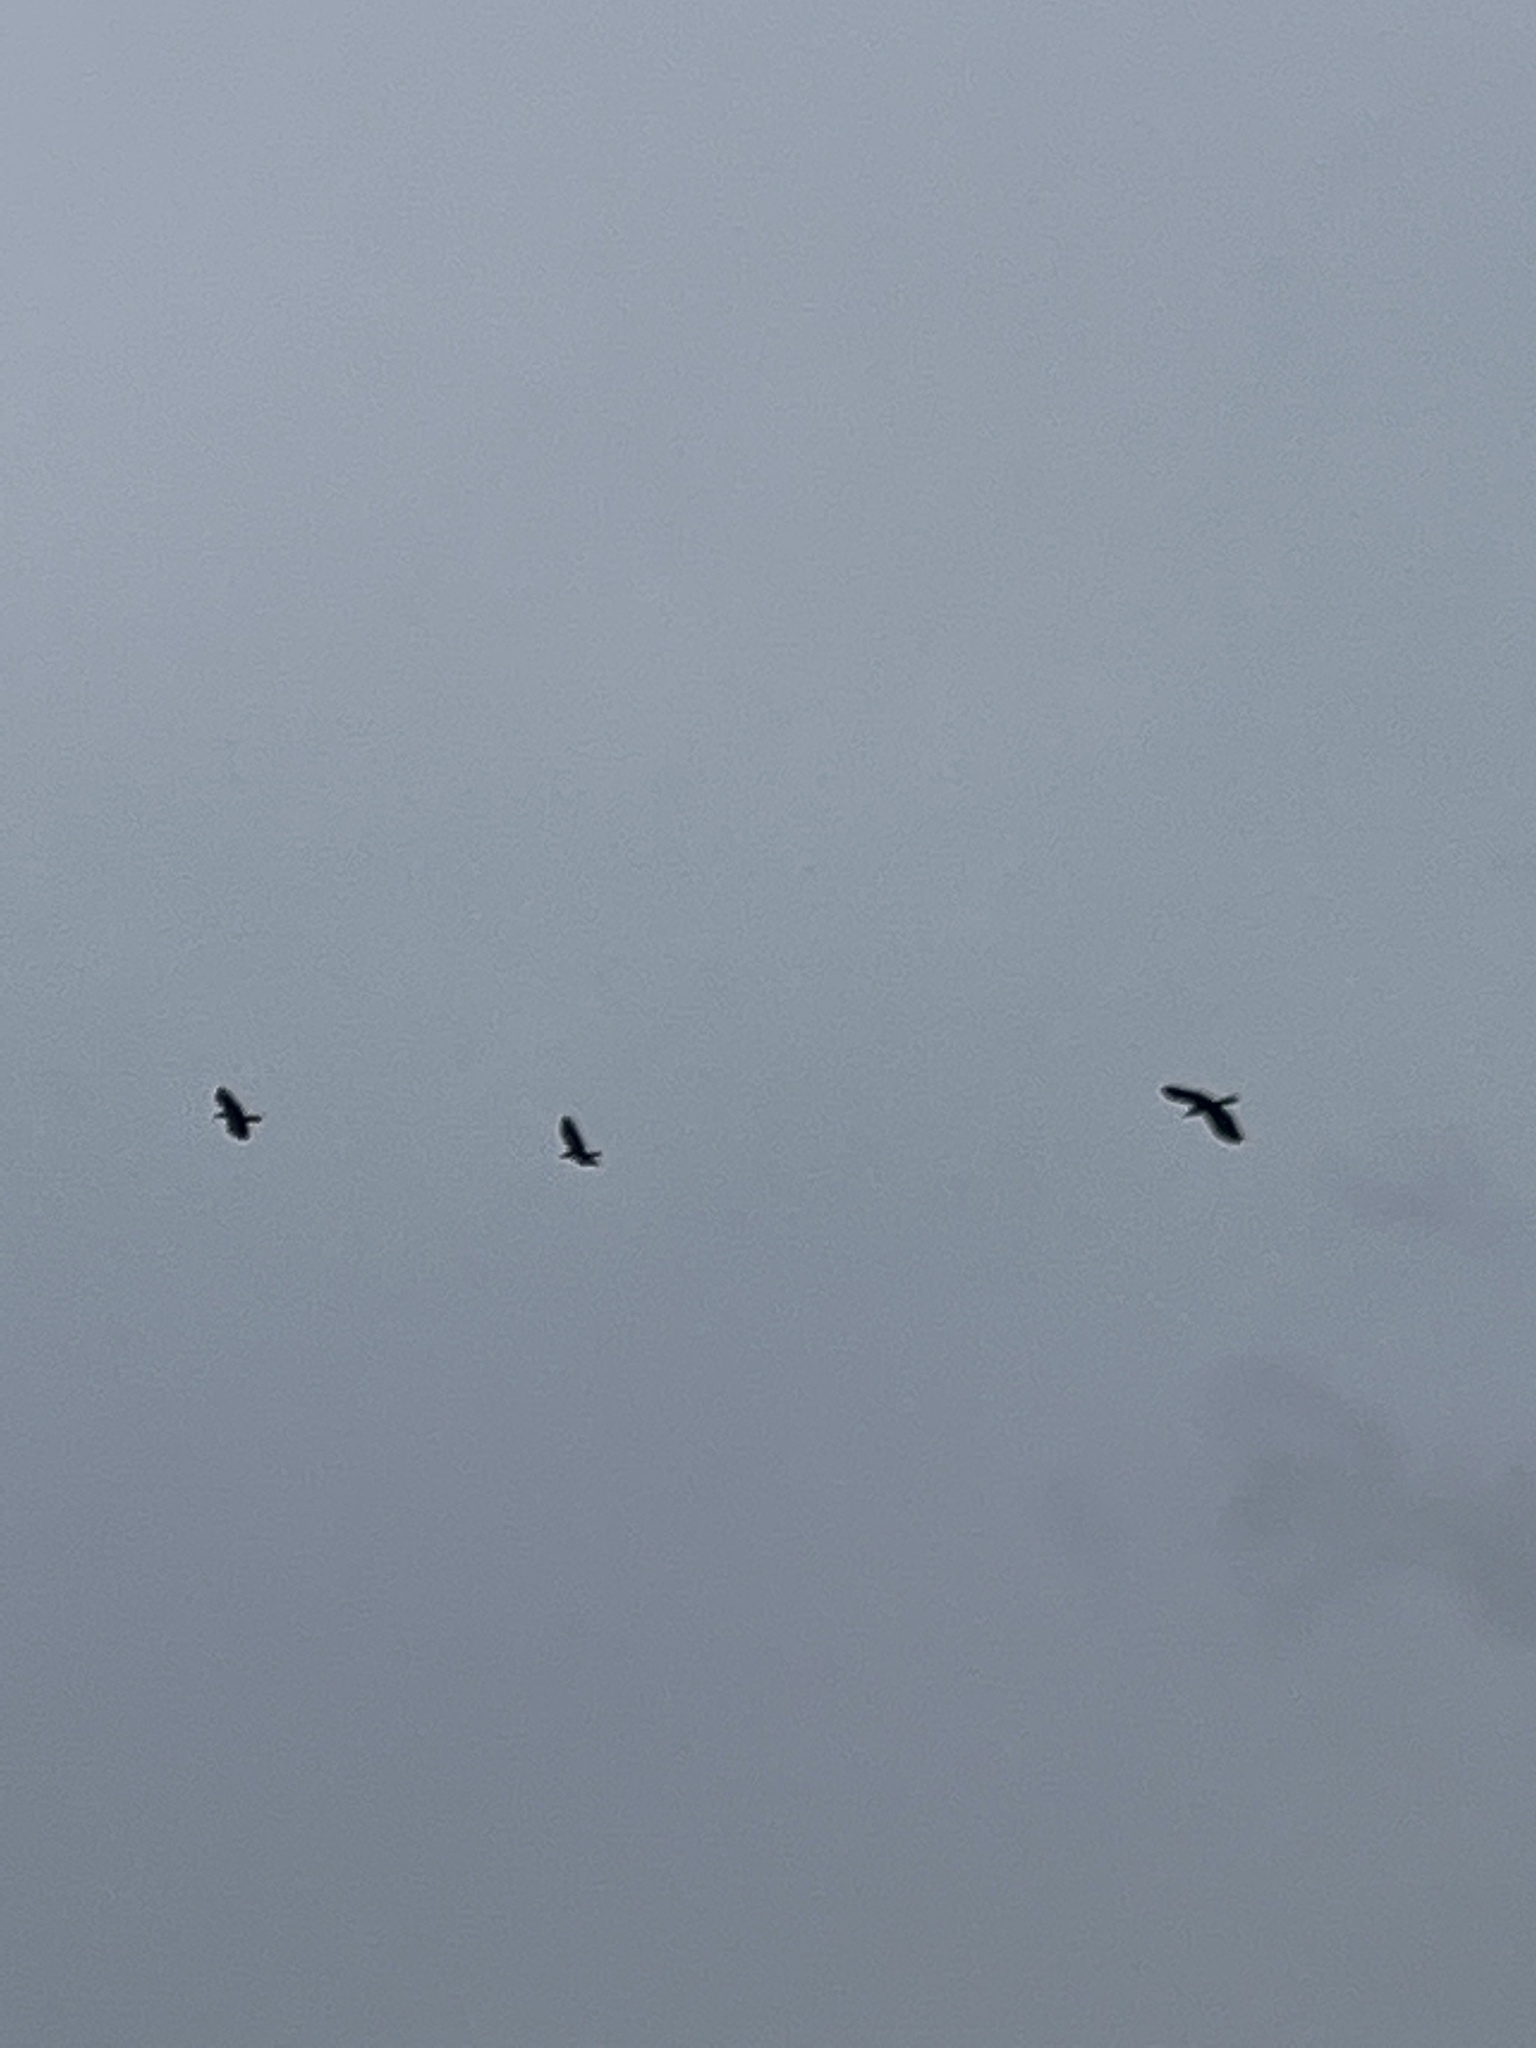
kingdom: Animalia
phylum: Chordata
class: Aves
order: Passeriformes
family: Corvidae
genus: Corvus
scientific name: Corvus brachyrhynchos
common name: American crow
